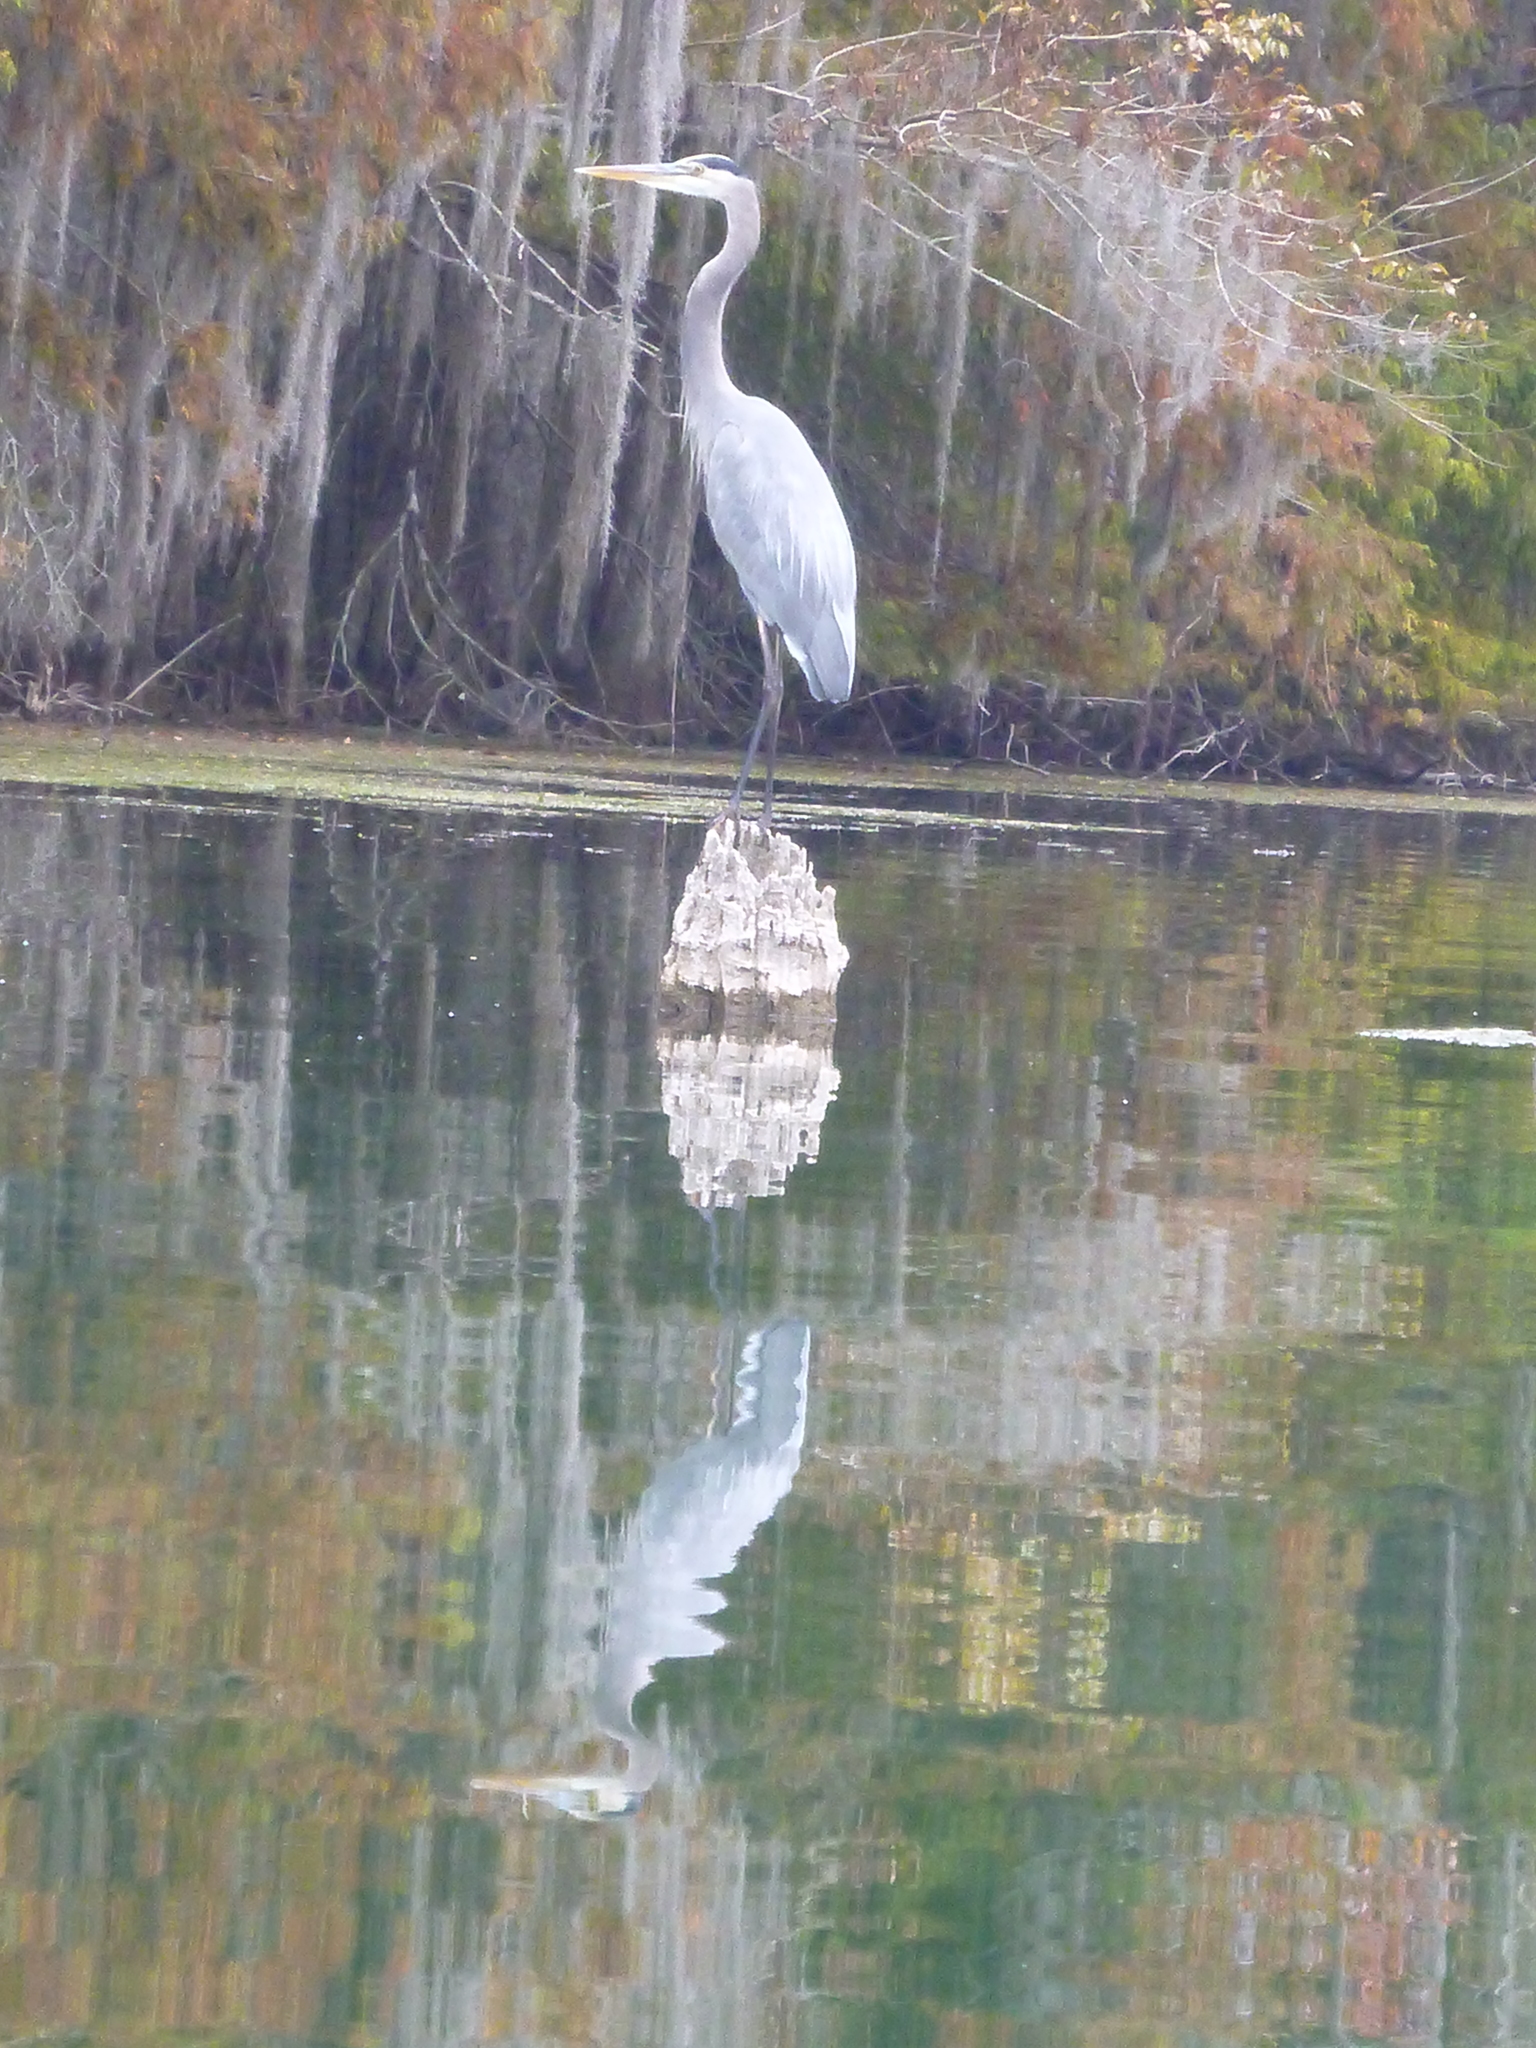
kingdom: Animalia
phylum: Chordata
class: Aves
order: Pelecaniformes
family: Ardeidae
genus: Ardea
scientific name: Ardea herodias
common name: Great blue heron
